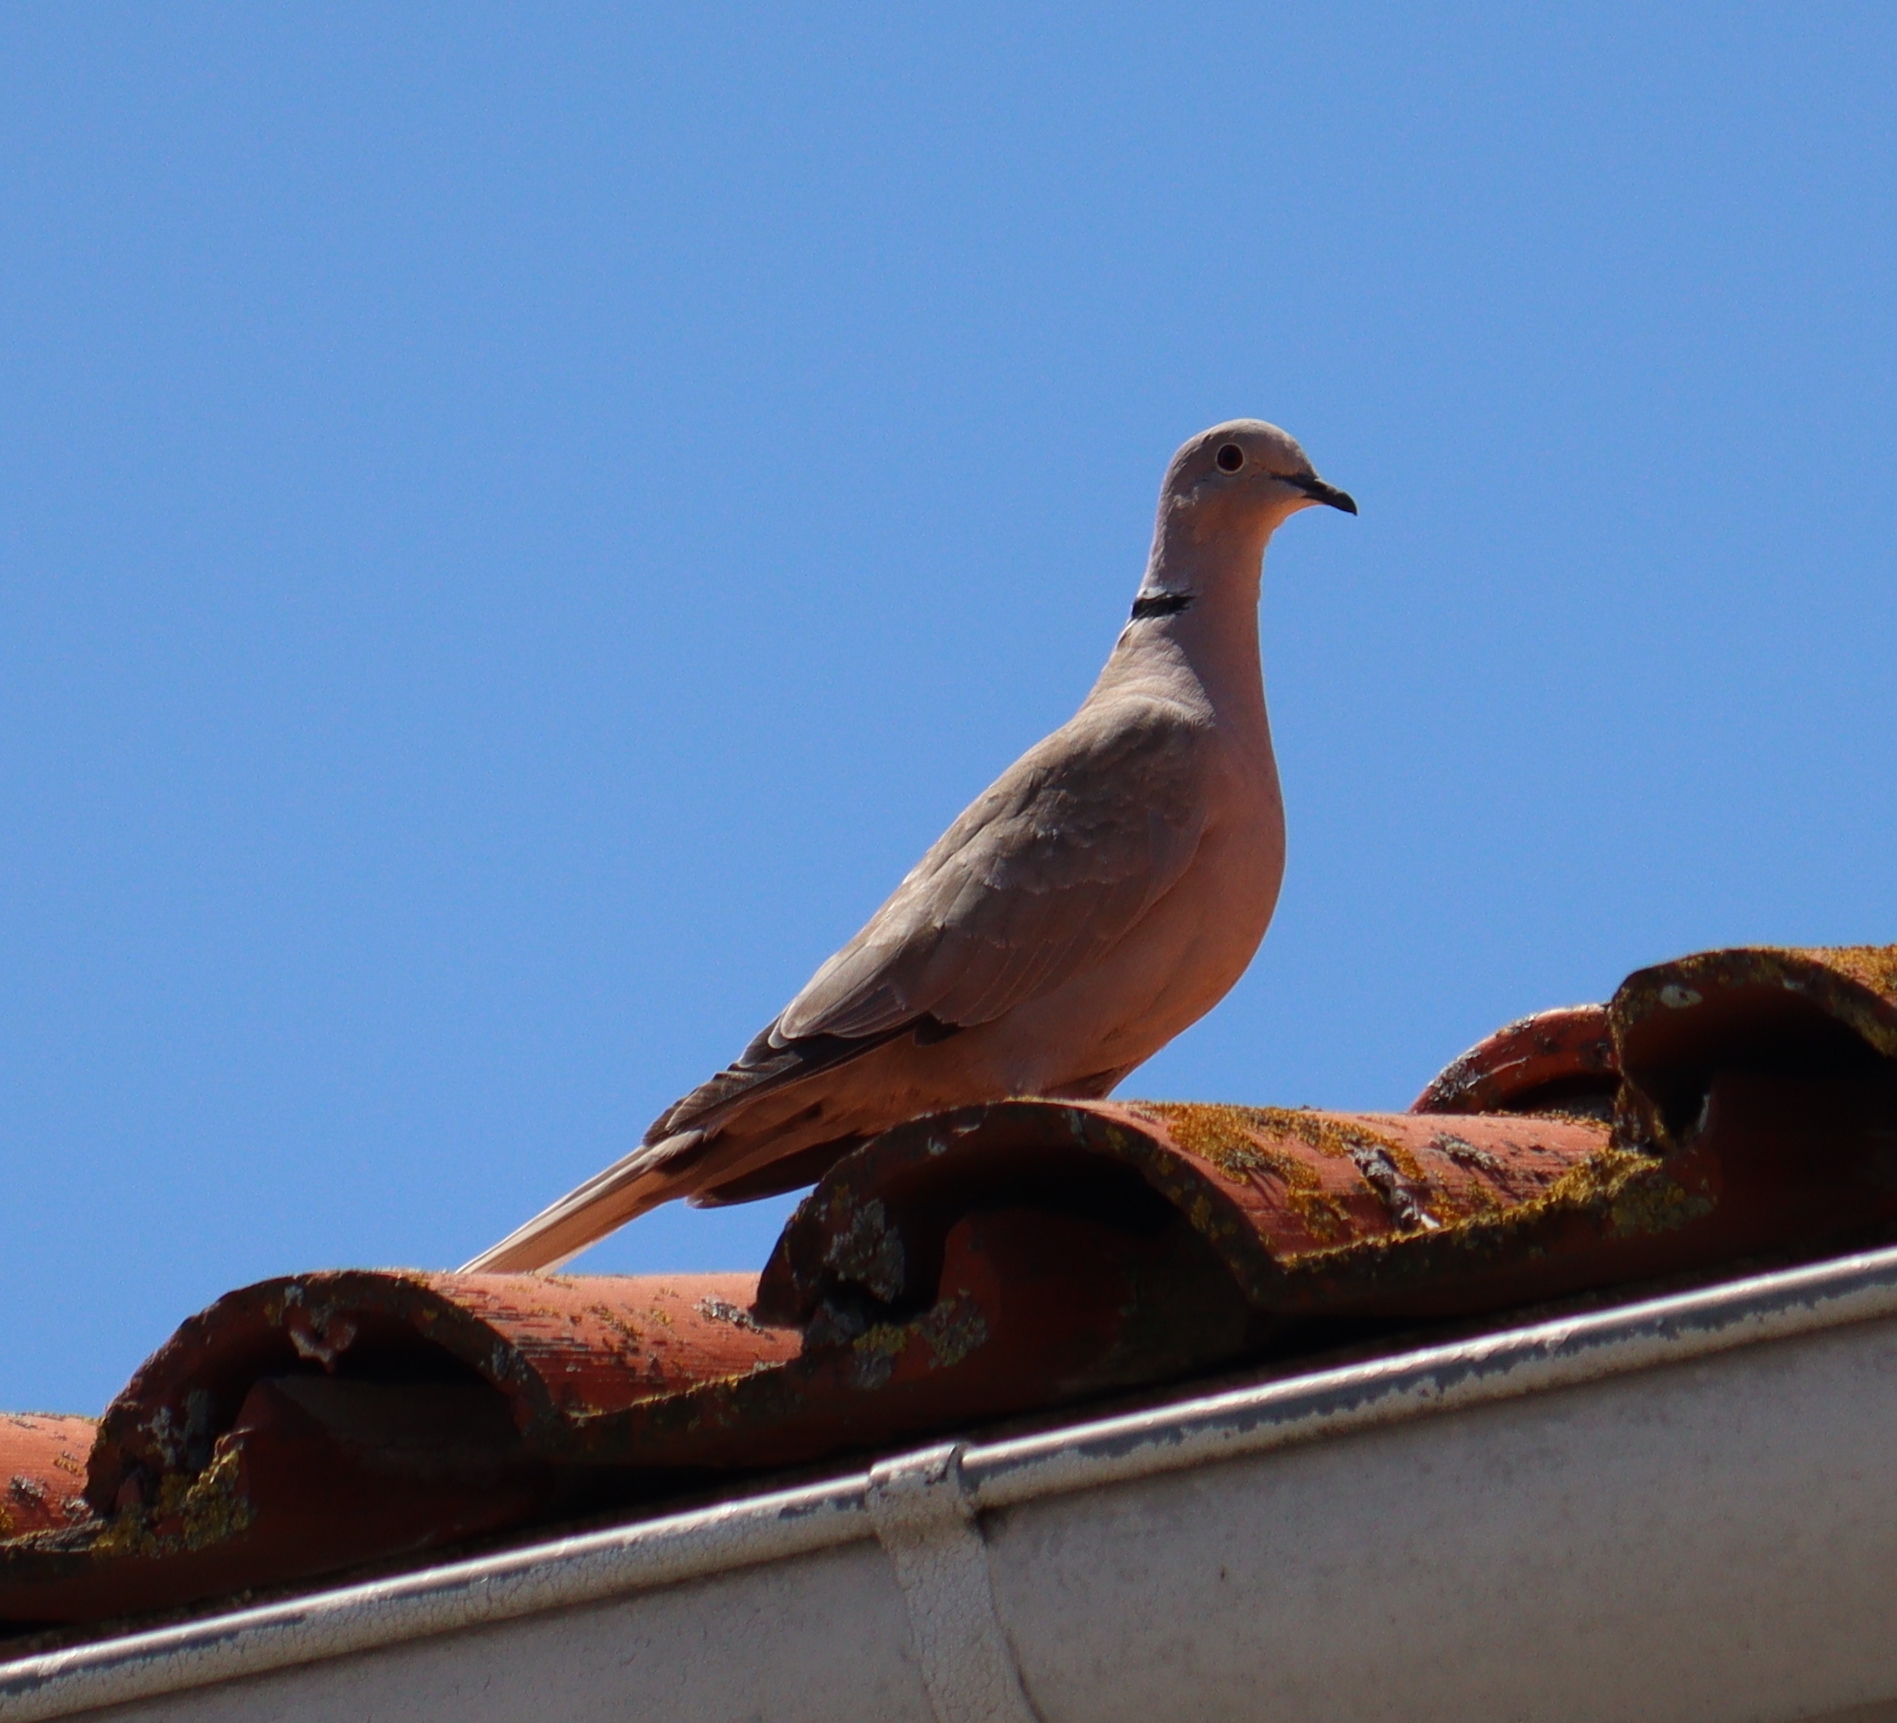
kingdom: Animalia
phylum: Chordata
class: Aves
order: Columbiformes
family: Columbidae
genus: Streptopelia
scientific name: Streptopelia decaocto
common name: Eurasian collared dove
